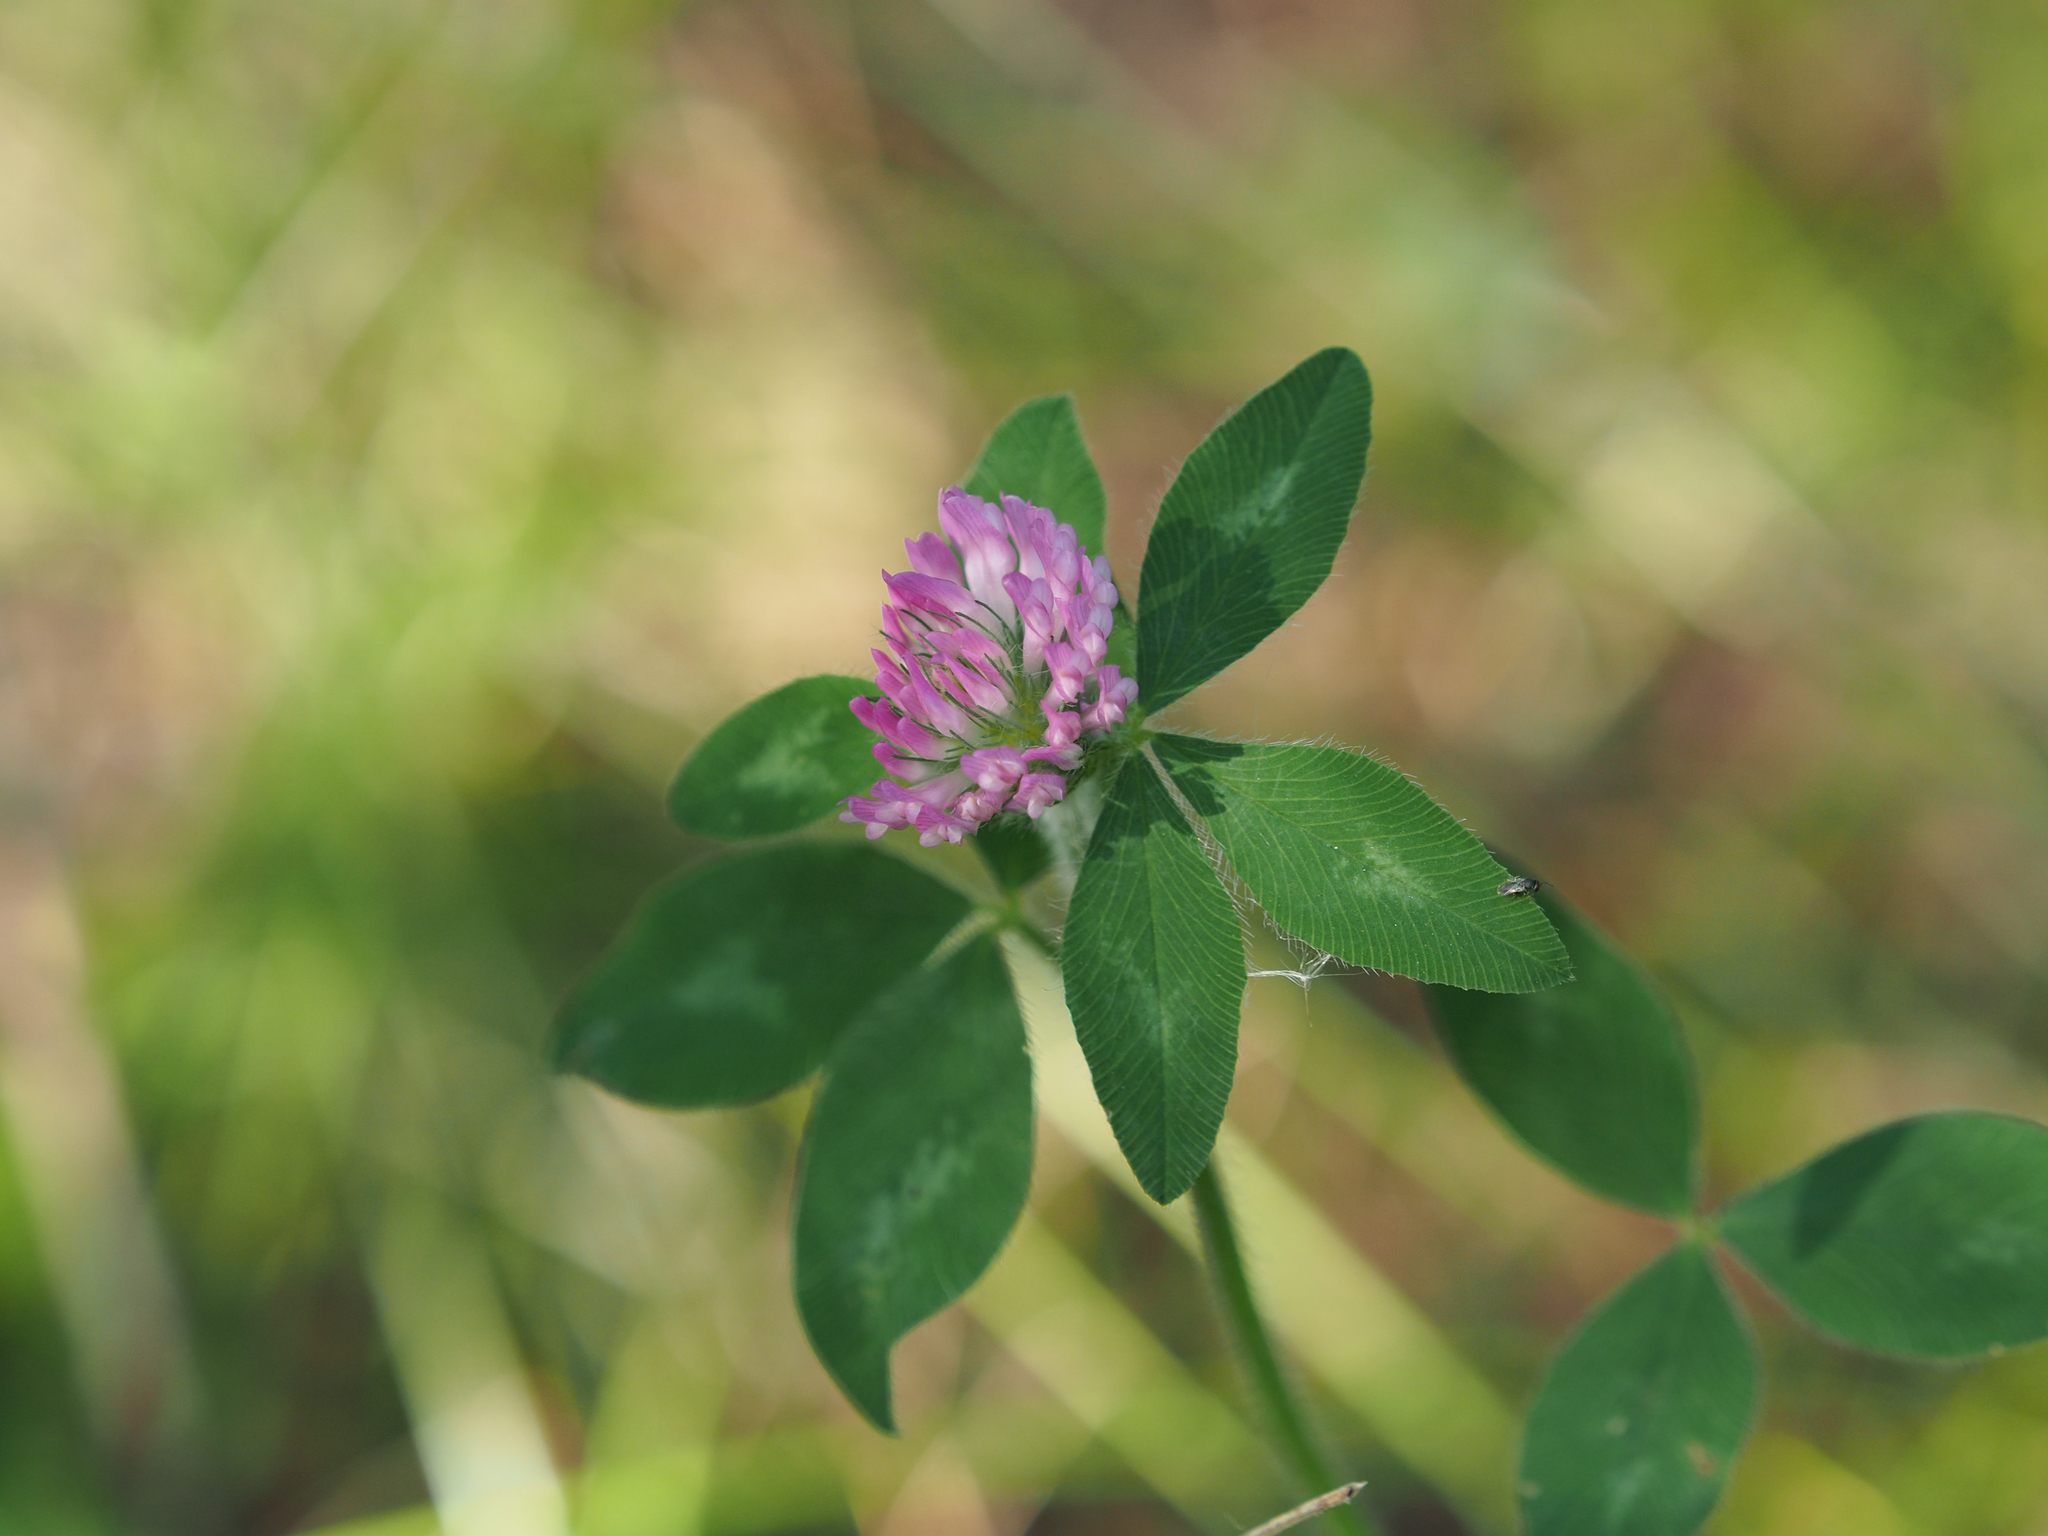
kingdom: Plantae
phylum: Tracheophyta
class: Magnoliopsida
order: Fabales
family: Fabaceae
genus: Trifolium
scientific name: Trifolium pratense
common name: Red clover
